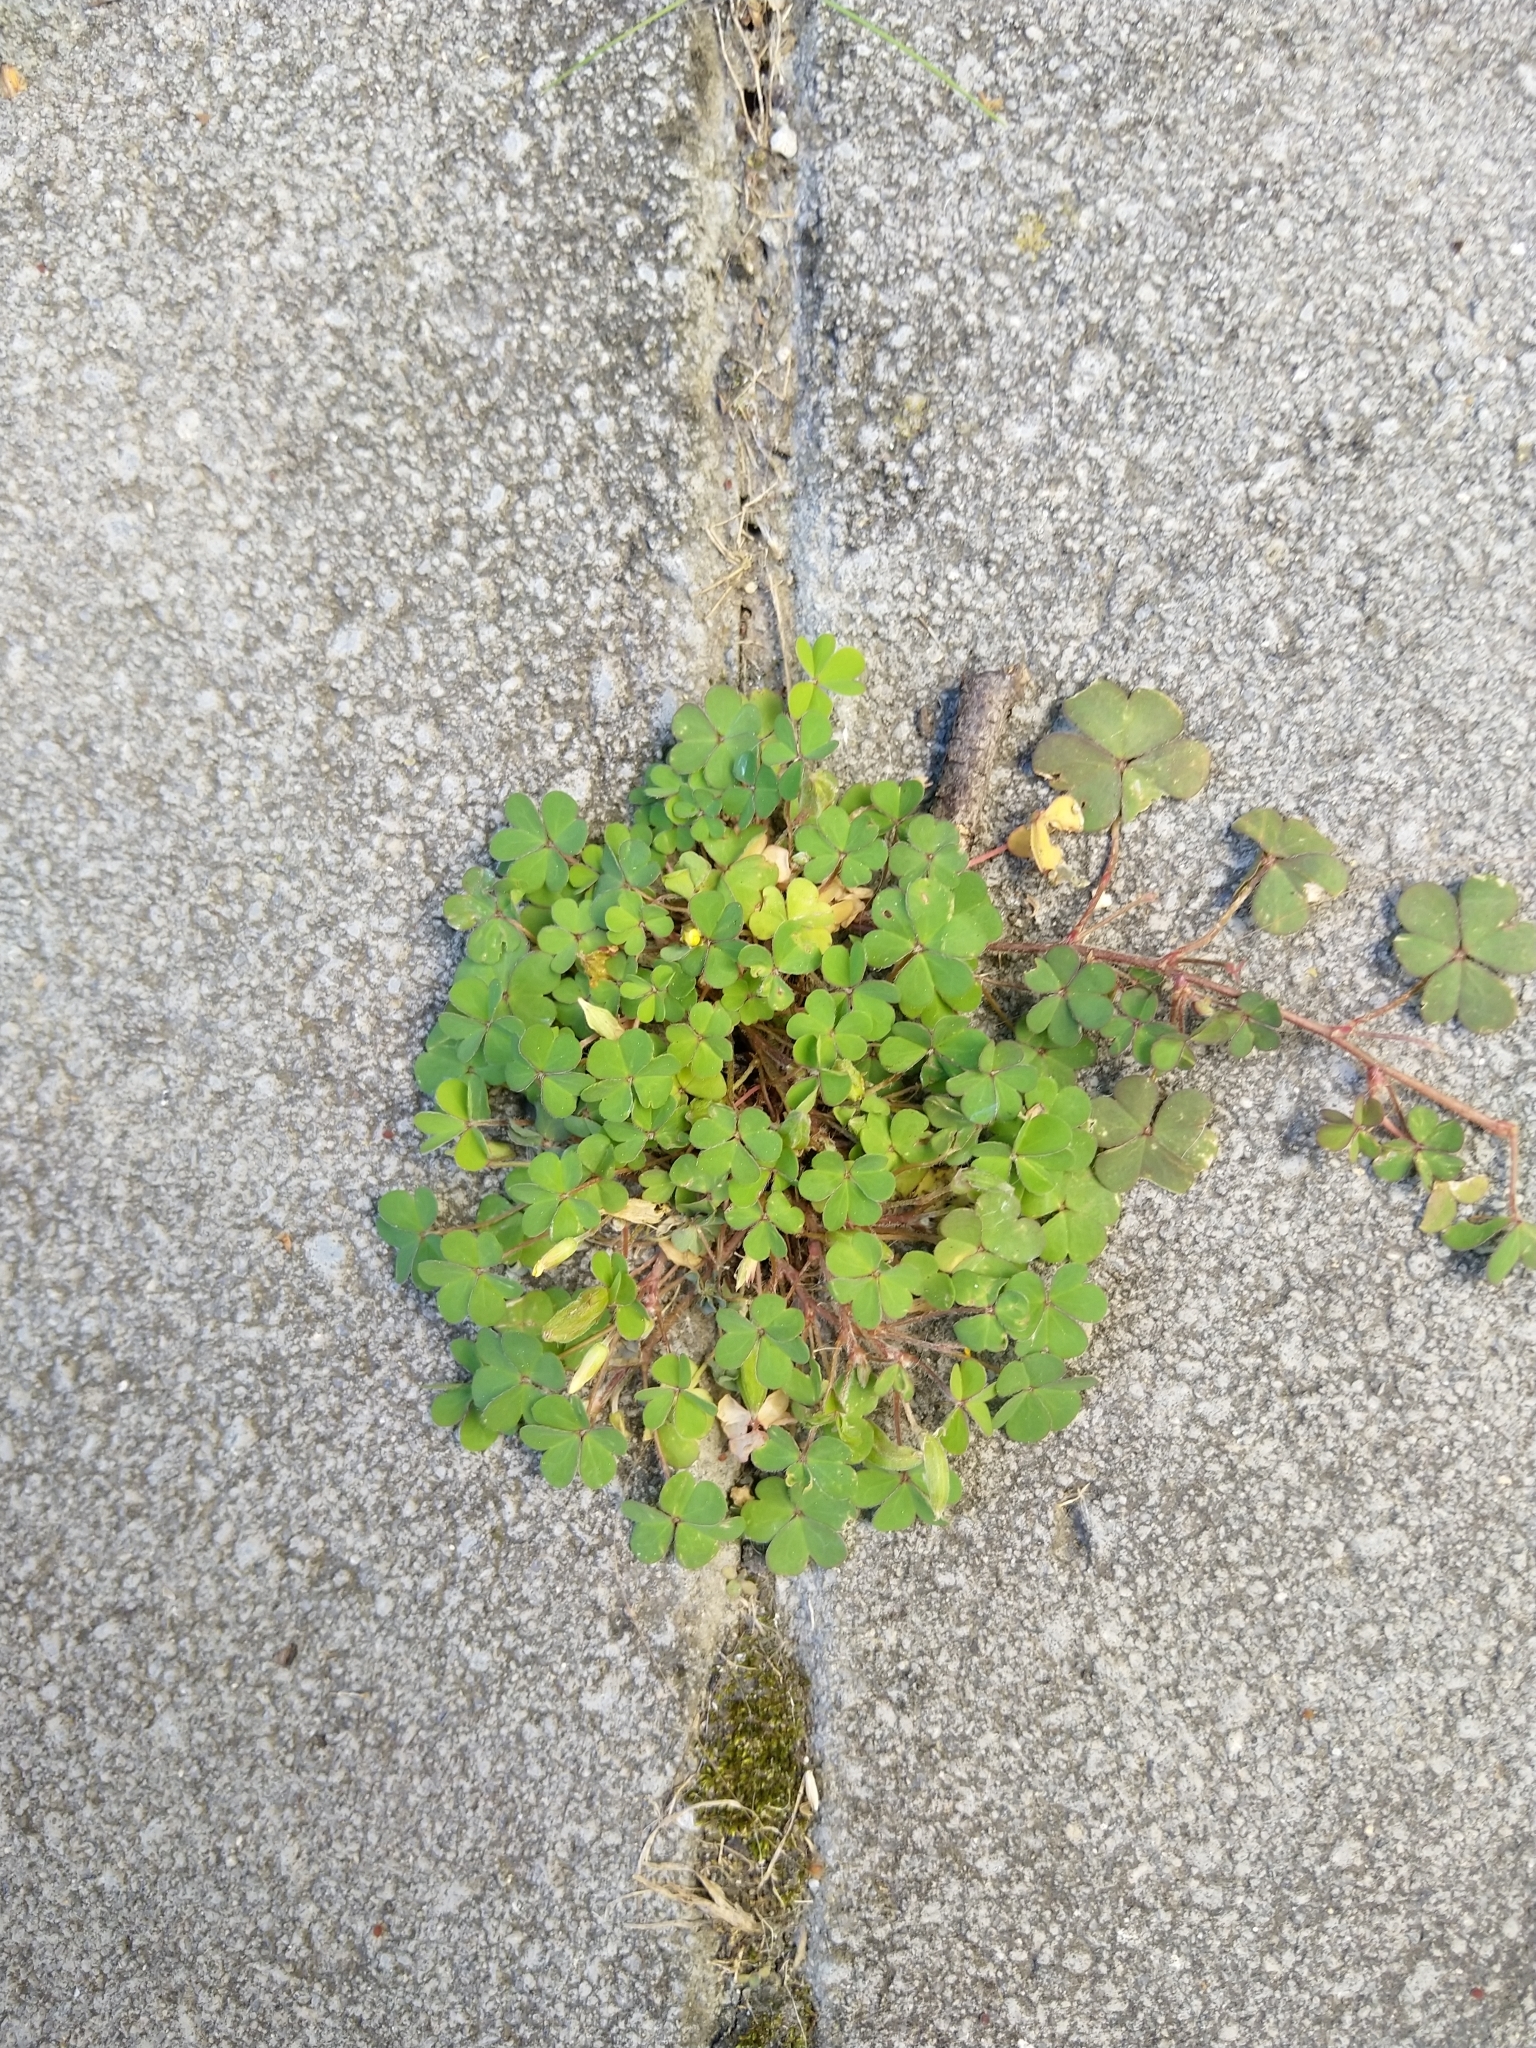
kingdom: Plantae
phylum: Tracheophyta
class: Magnoliopsida
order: Oxalidales
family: Oxalidaceae
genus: Oxalis
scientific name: Oxalis exilis
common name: Least yellow-sorrel
